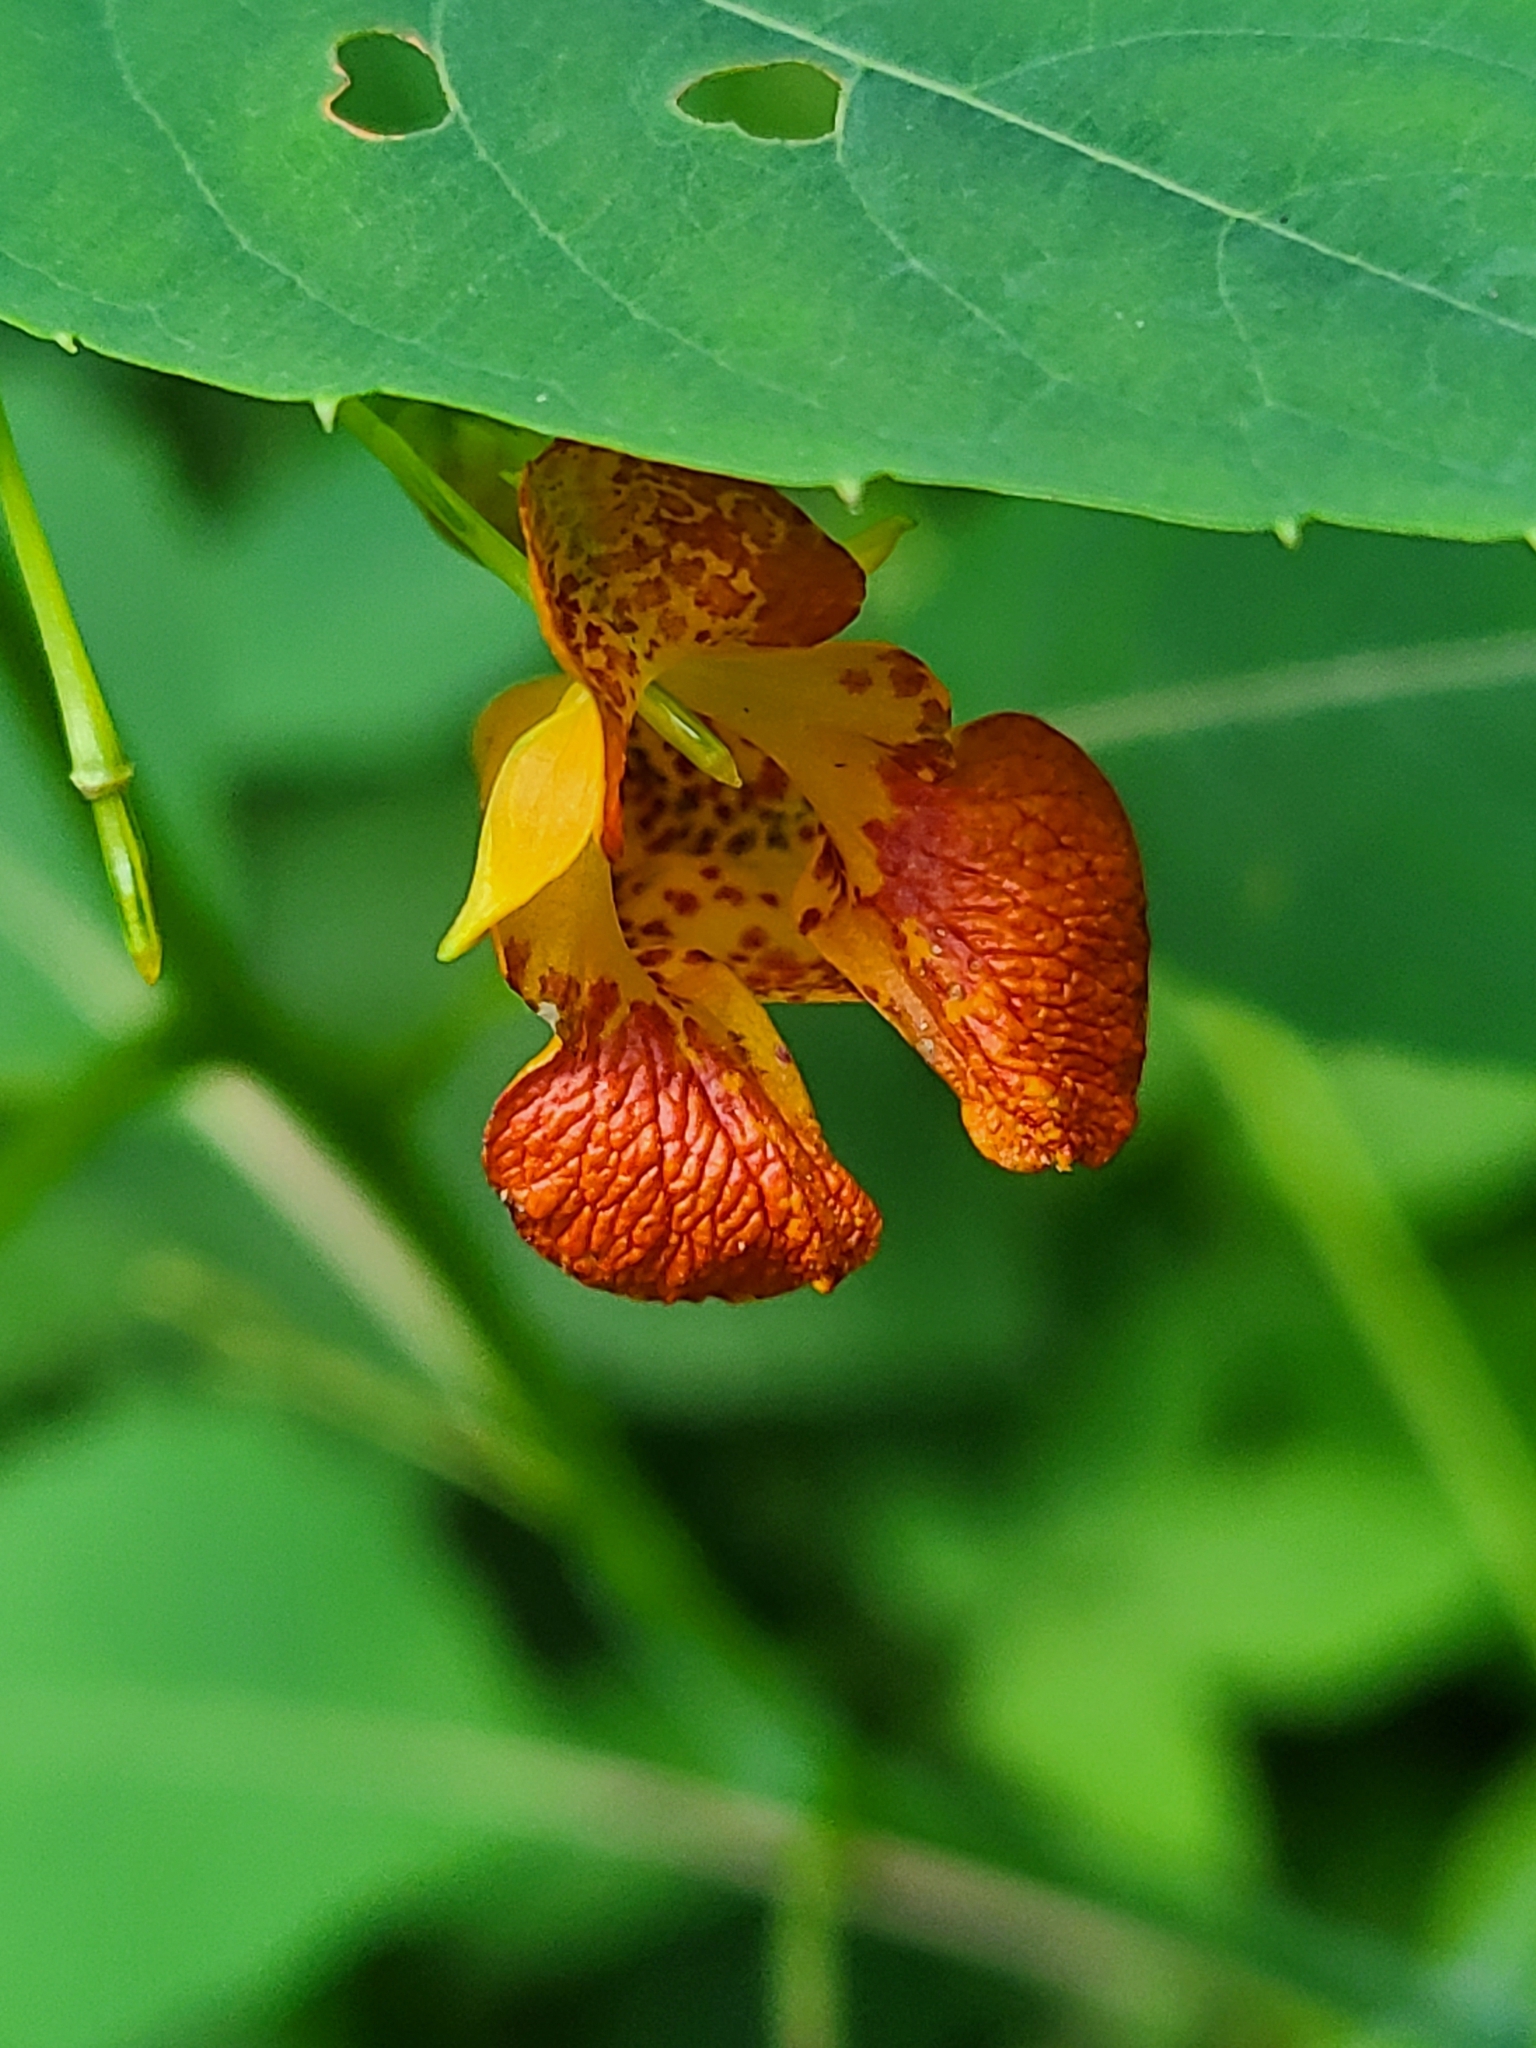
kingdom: Plantae
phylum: Tracheophyta
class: Magnoliopsida
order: Ericales
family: Balsaminaceae
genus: Impatiens
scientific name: Impatiens capensis
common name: Orange balsam
